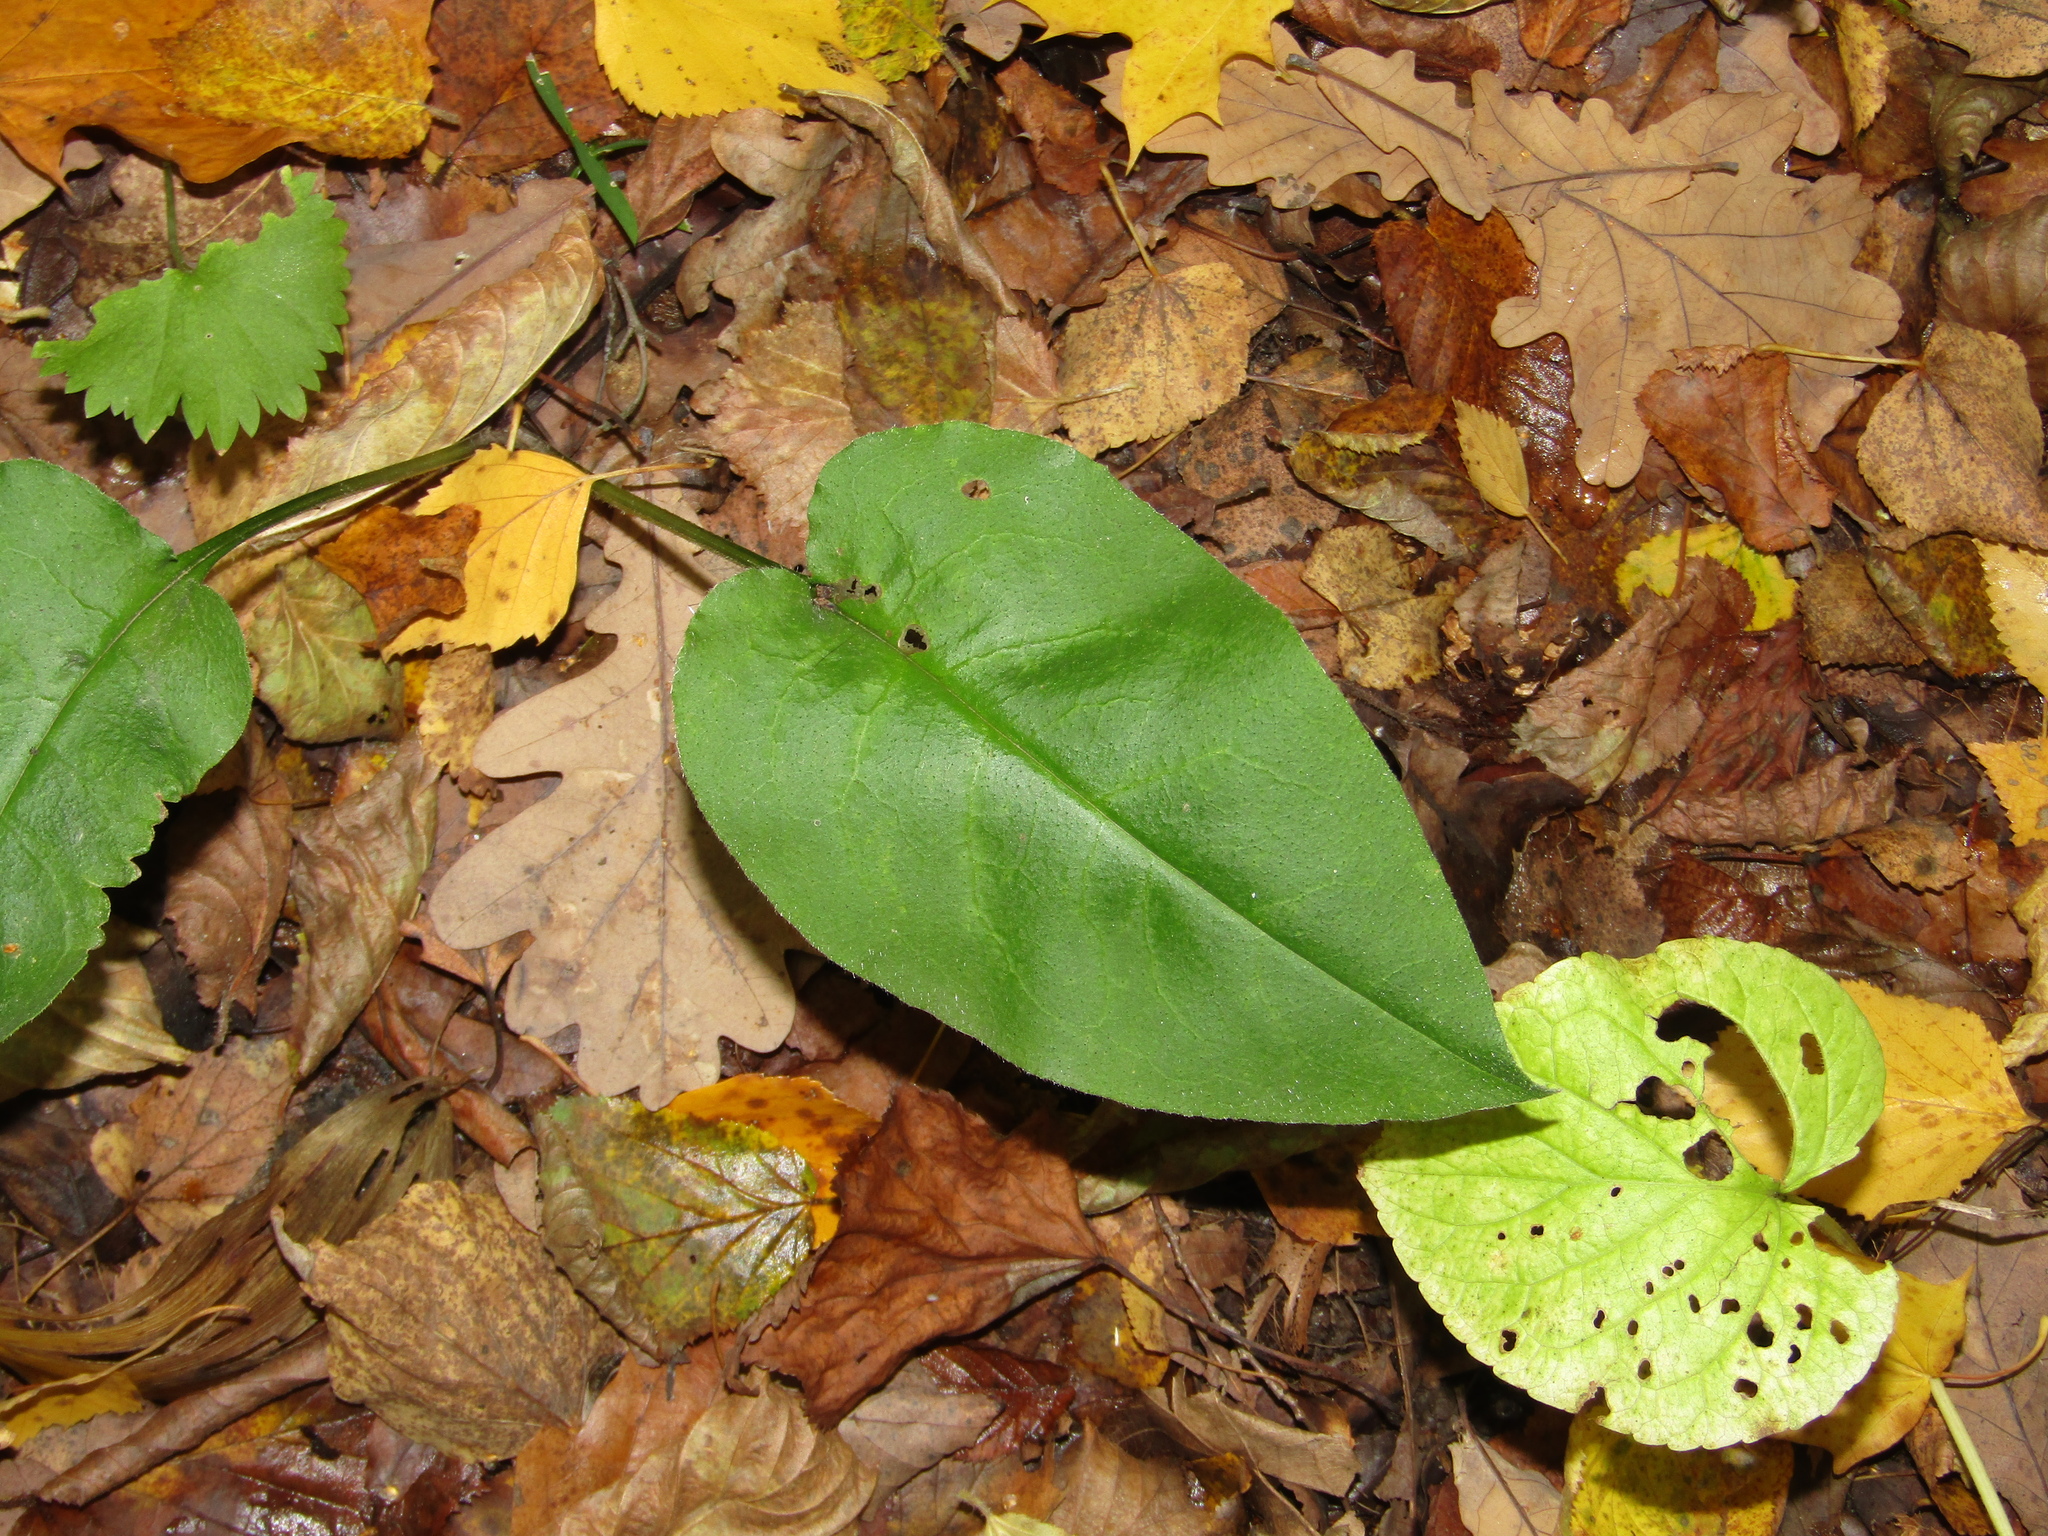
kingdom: Plantae
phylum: Tracheophyta
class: Magnoliopsida
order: Boraginales
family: Boraginaceae
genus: Pulmonaria
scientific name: Pulmonaria obscura
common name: Suffolk lungwort
